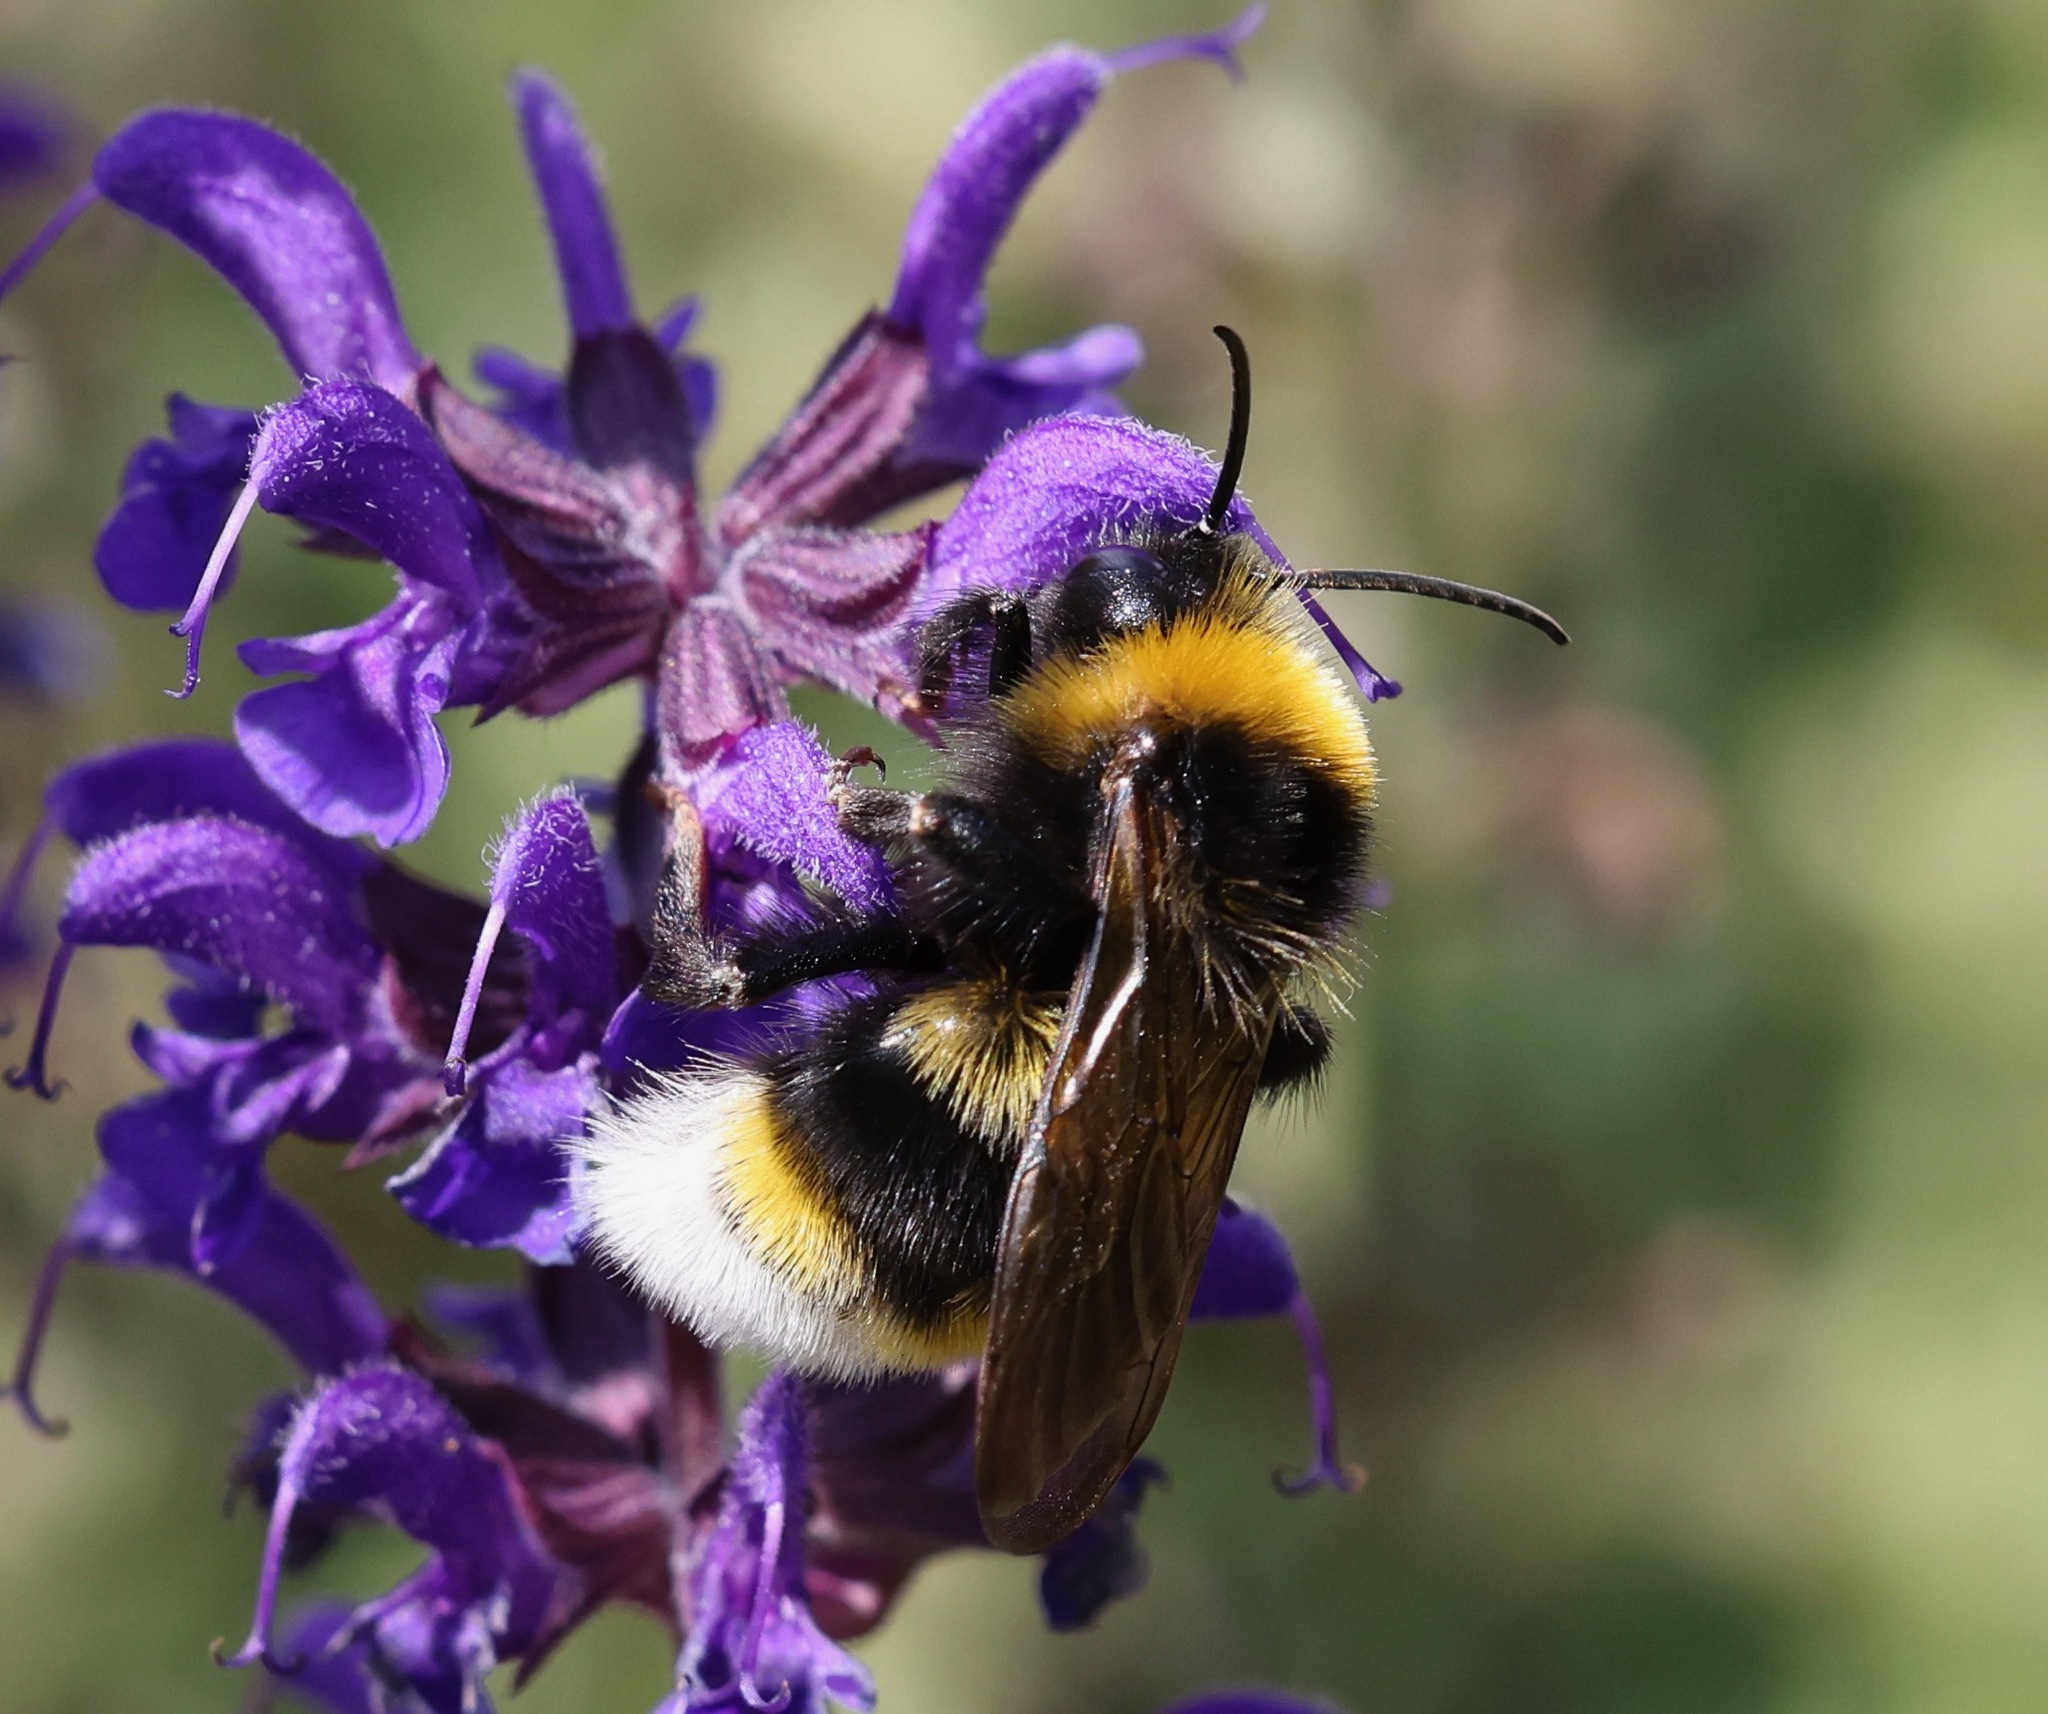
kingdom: Animalia
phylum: Arthropoda
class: Insecta
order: Hymenoptera
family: Apidae
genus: Bombus
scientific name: Bombus vestalis
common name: Vestal cuckoo bee
